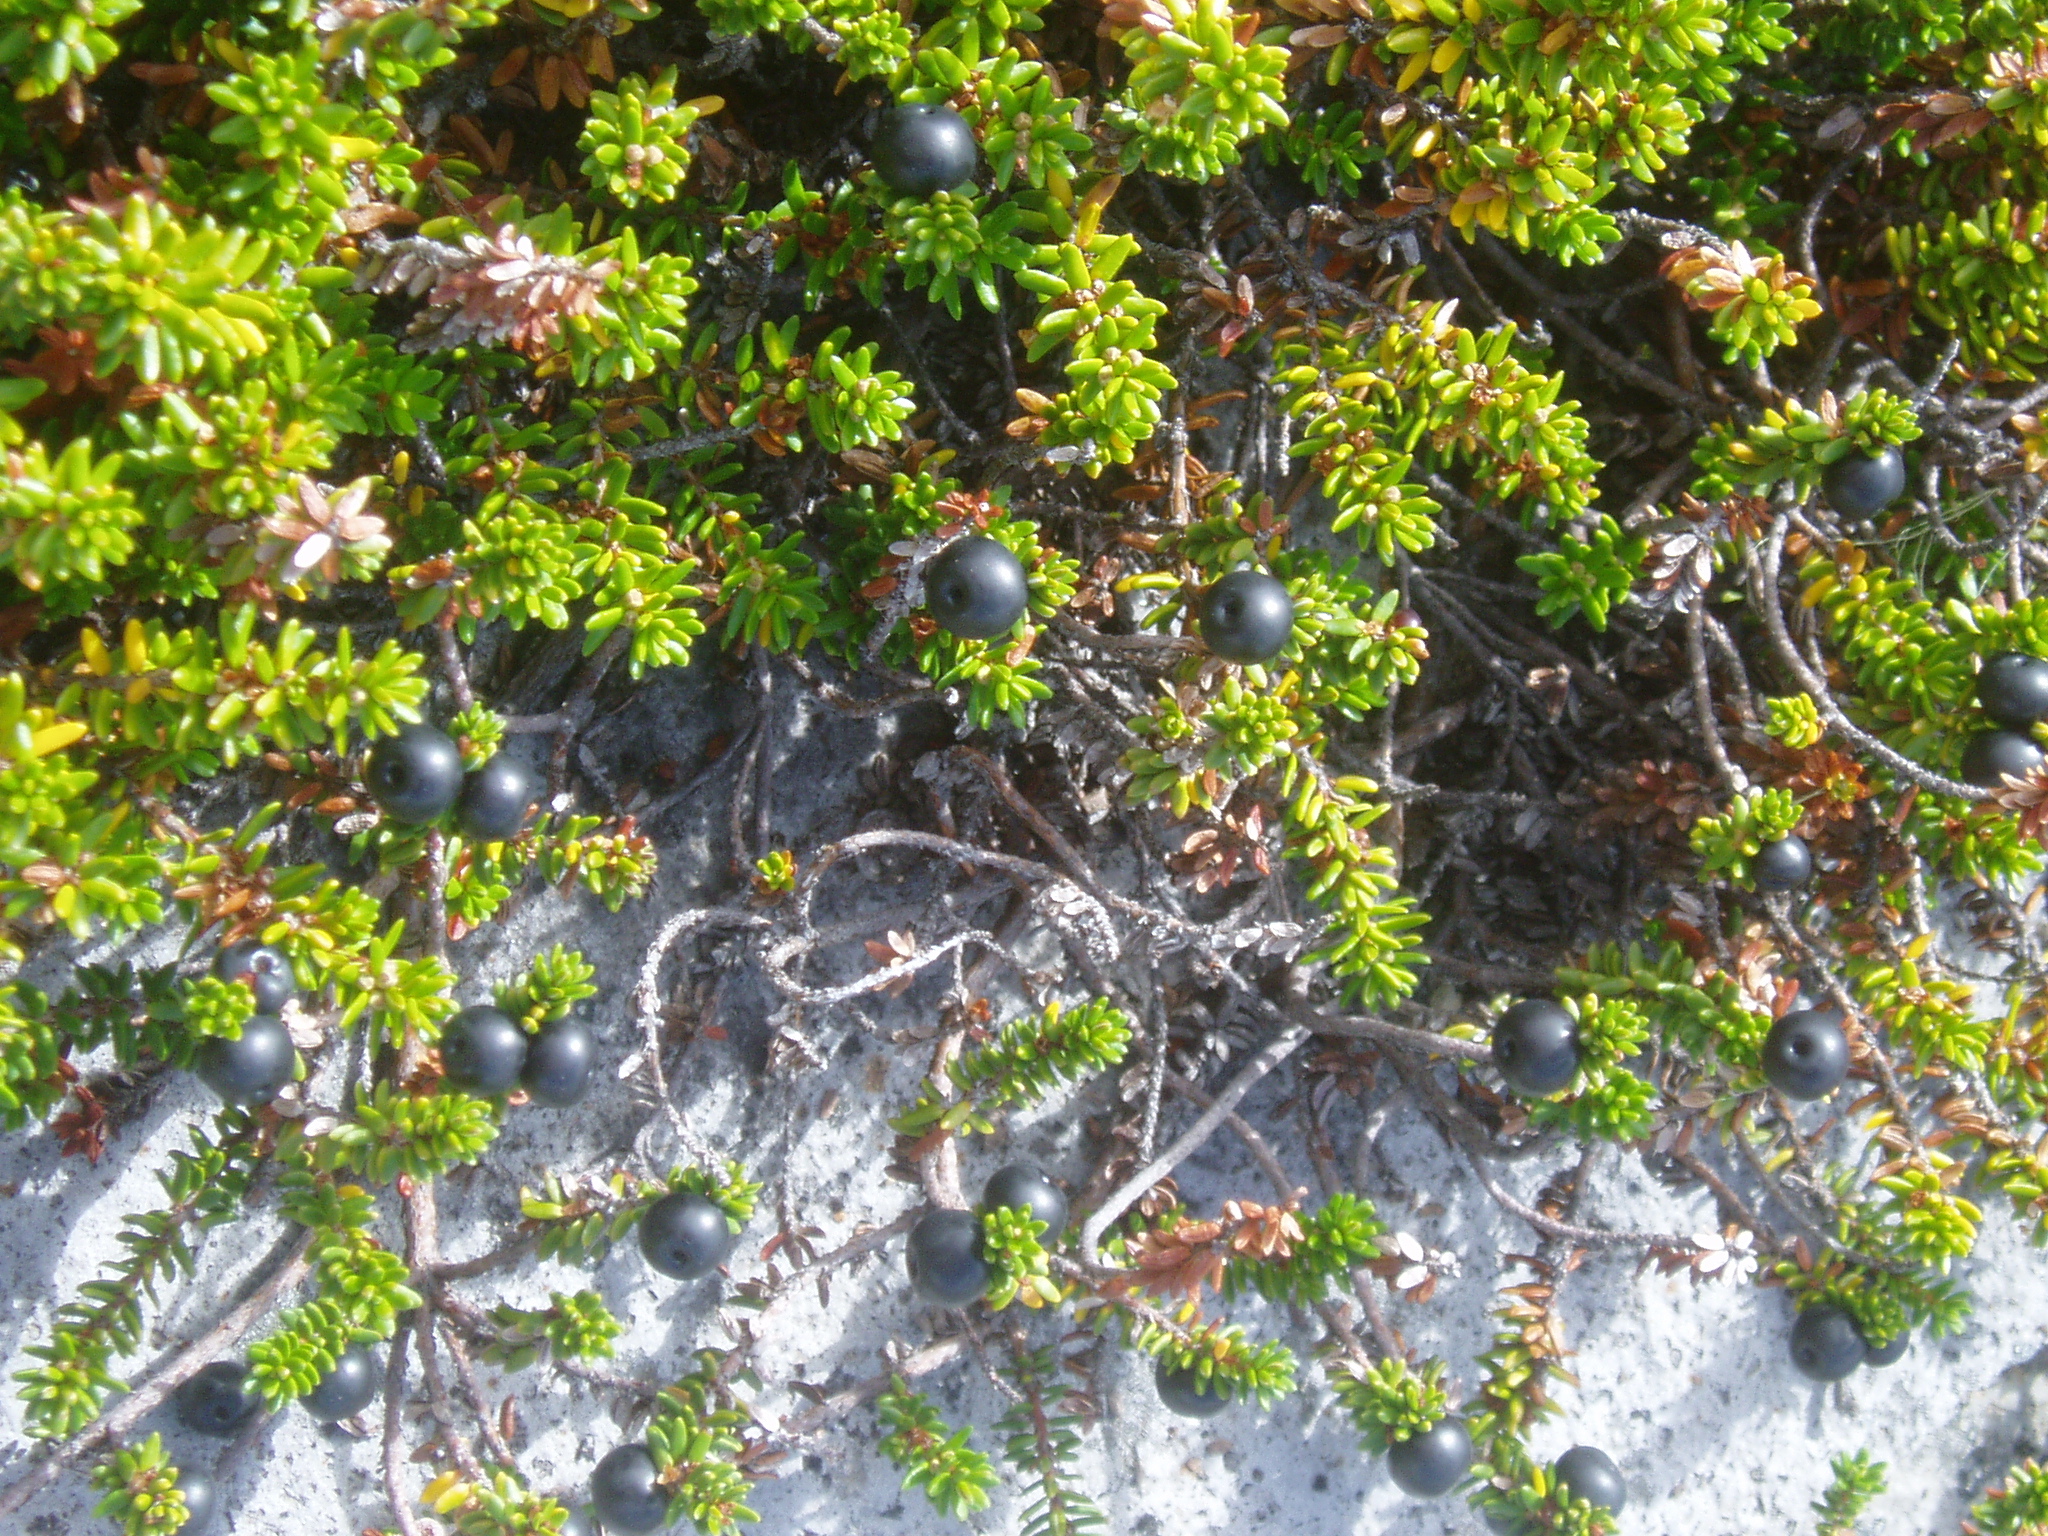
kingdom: Plantae
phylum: Tracheophyta
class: Magnoliopsida
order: Ericales
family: Ericaceae
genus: Empetrum
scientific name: Empetrum nigrum
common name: Black crowberry
